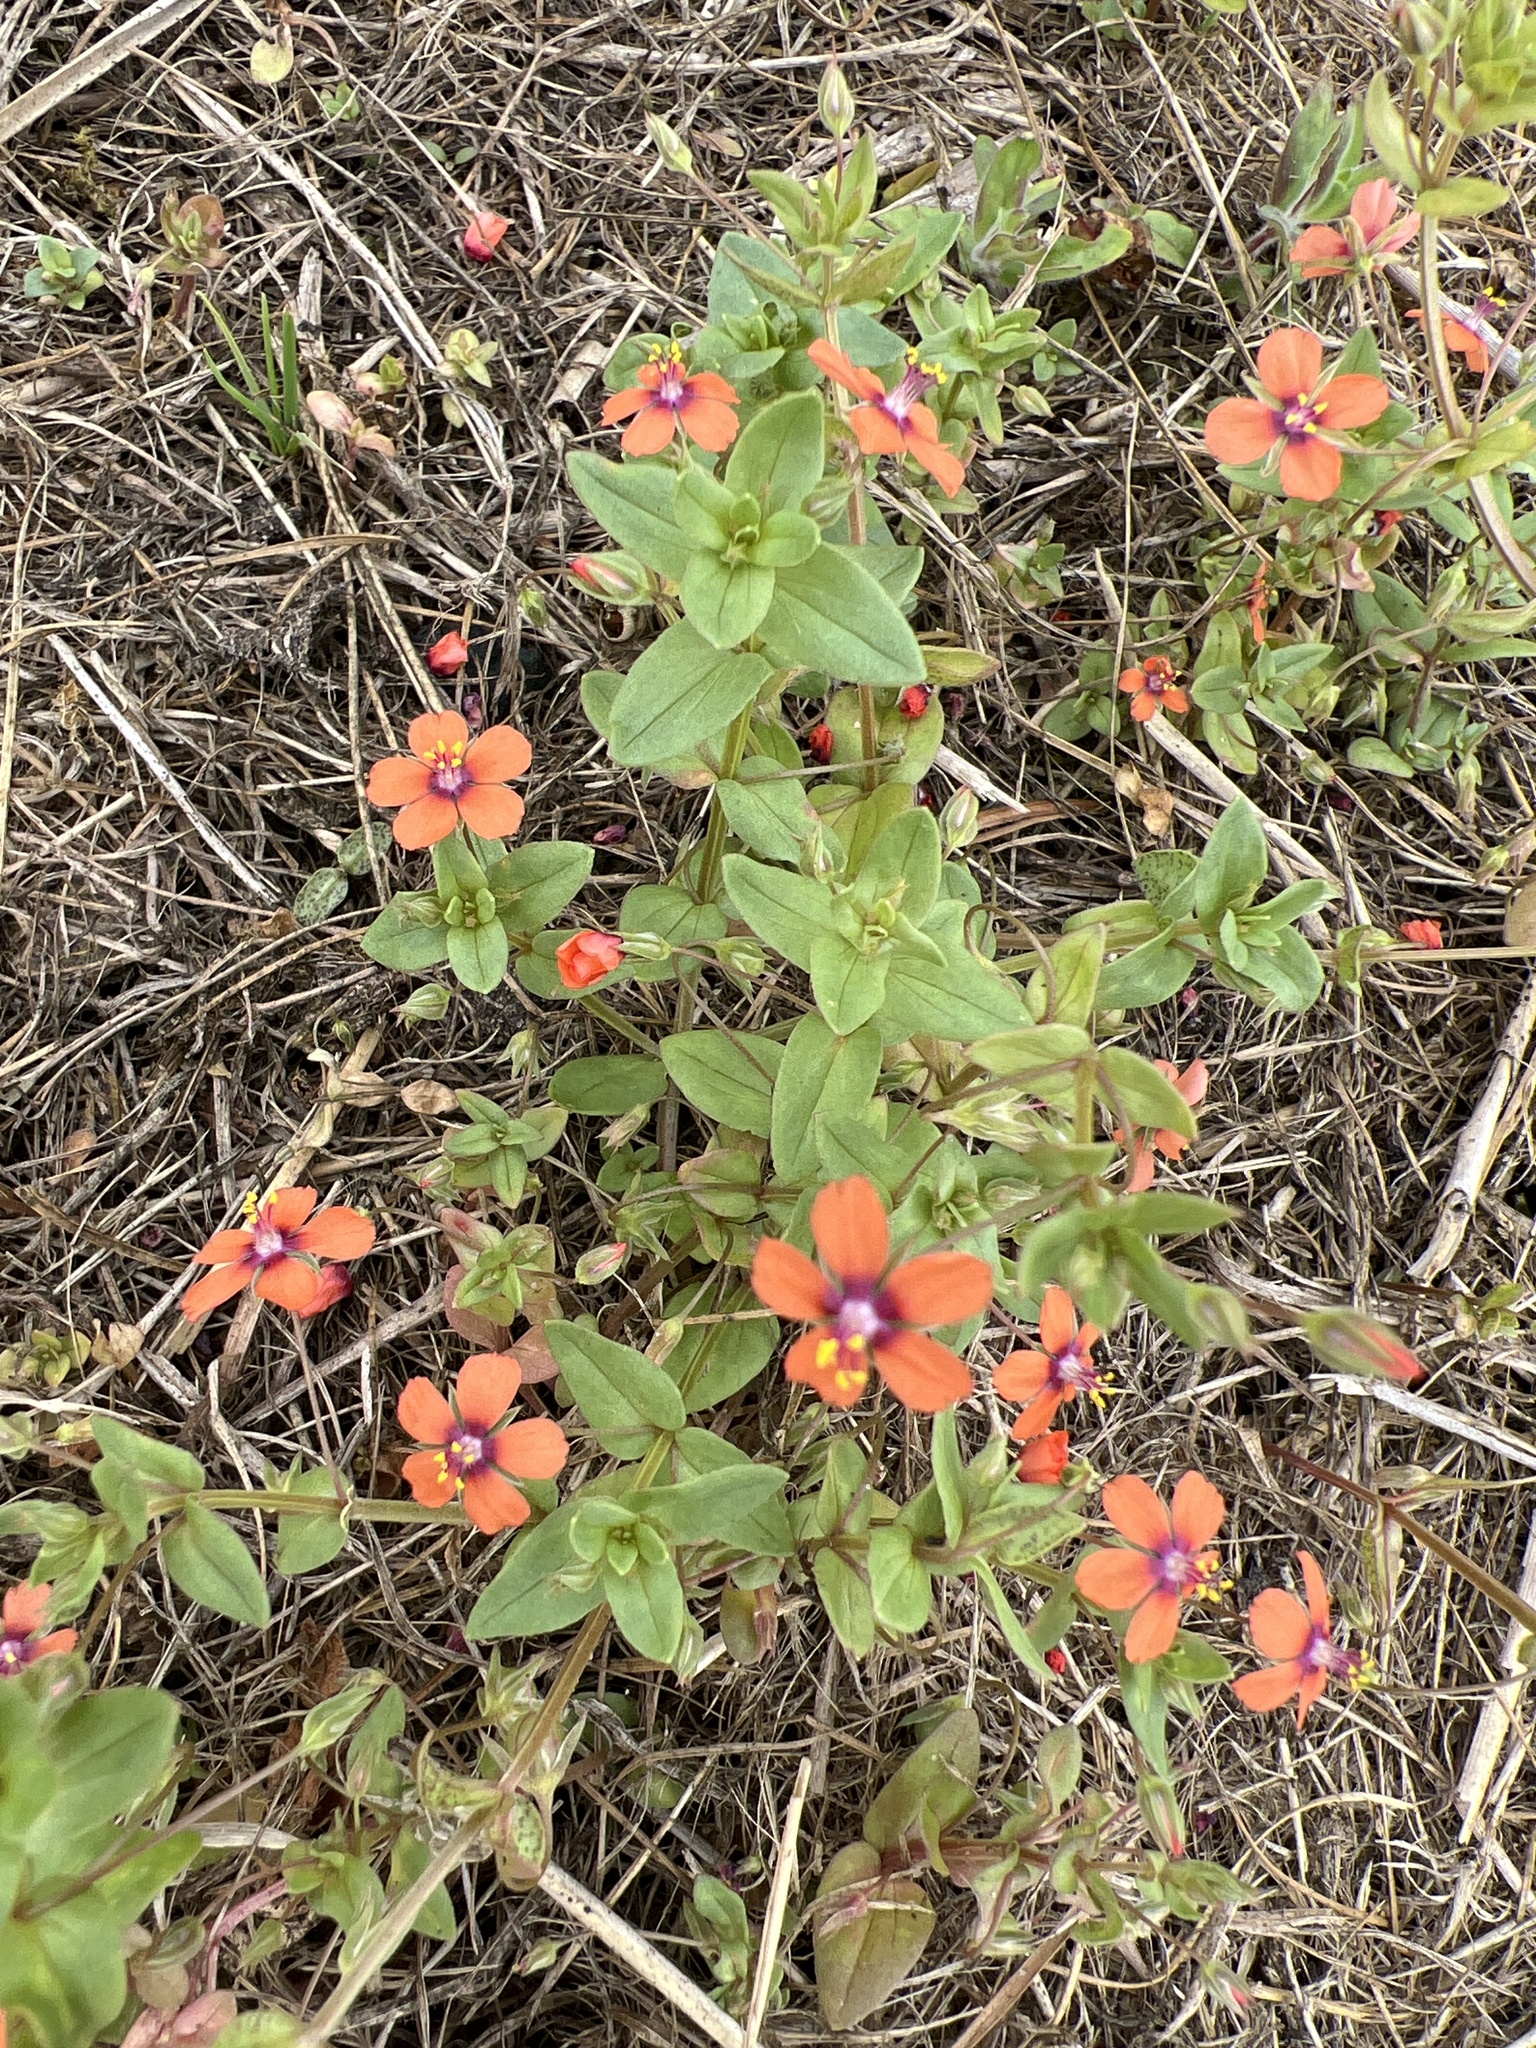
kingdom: Plantae
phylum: Tracheophyta
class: Magnoliopsida
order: Ericales
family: Primulaceae
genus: Lysimachia
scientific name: Lysimachia arvensis
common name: Scarlet pimpernel
